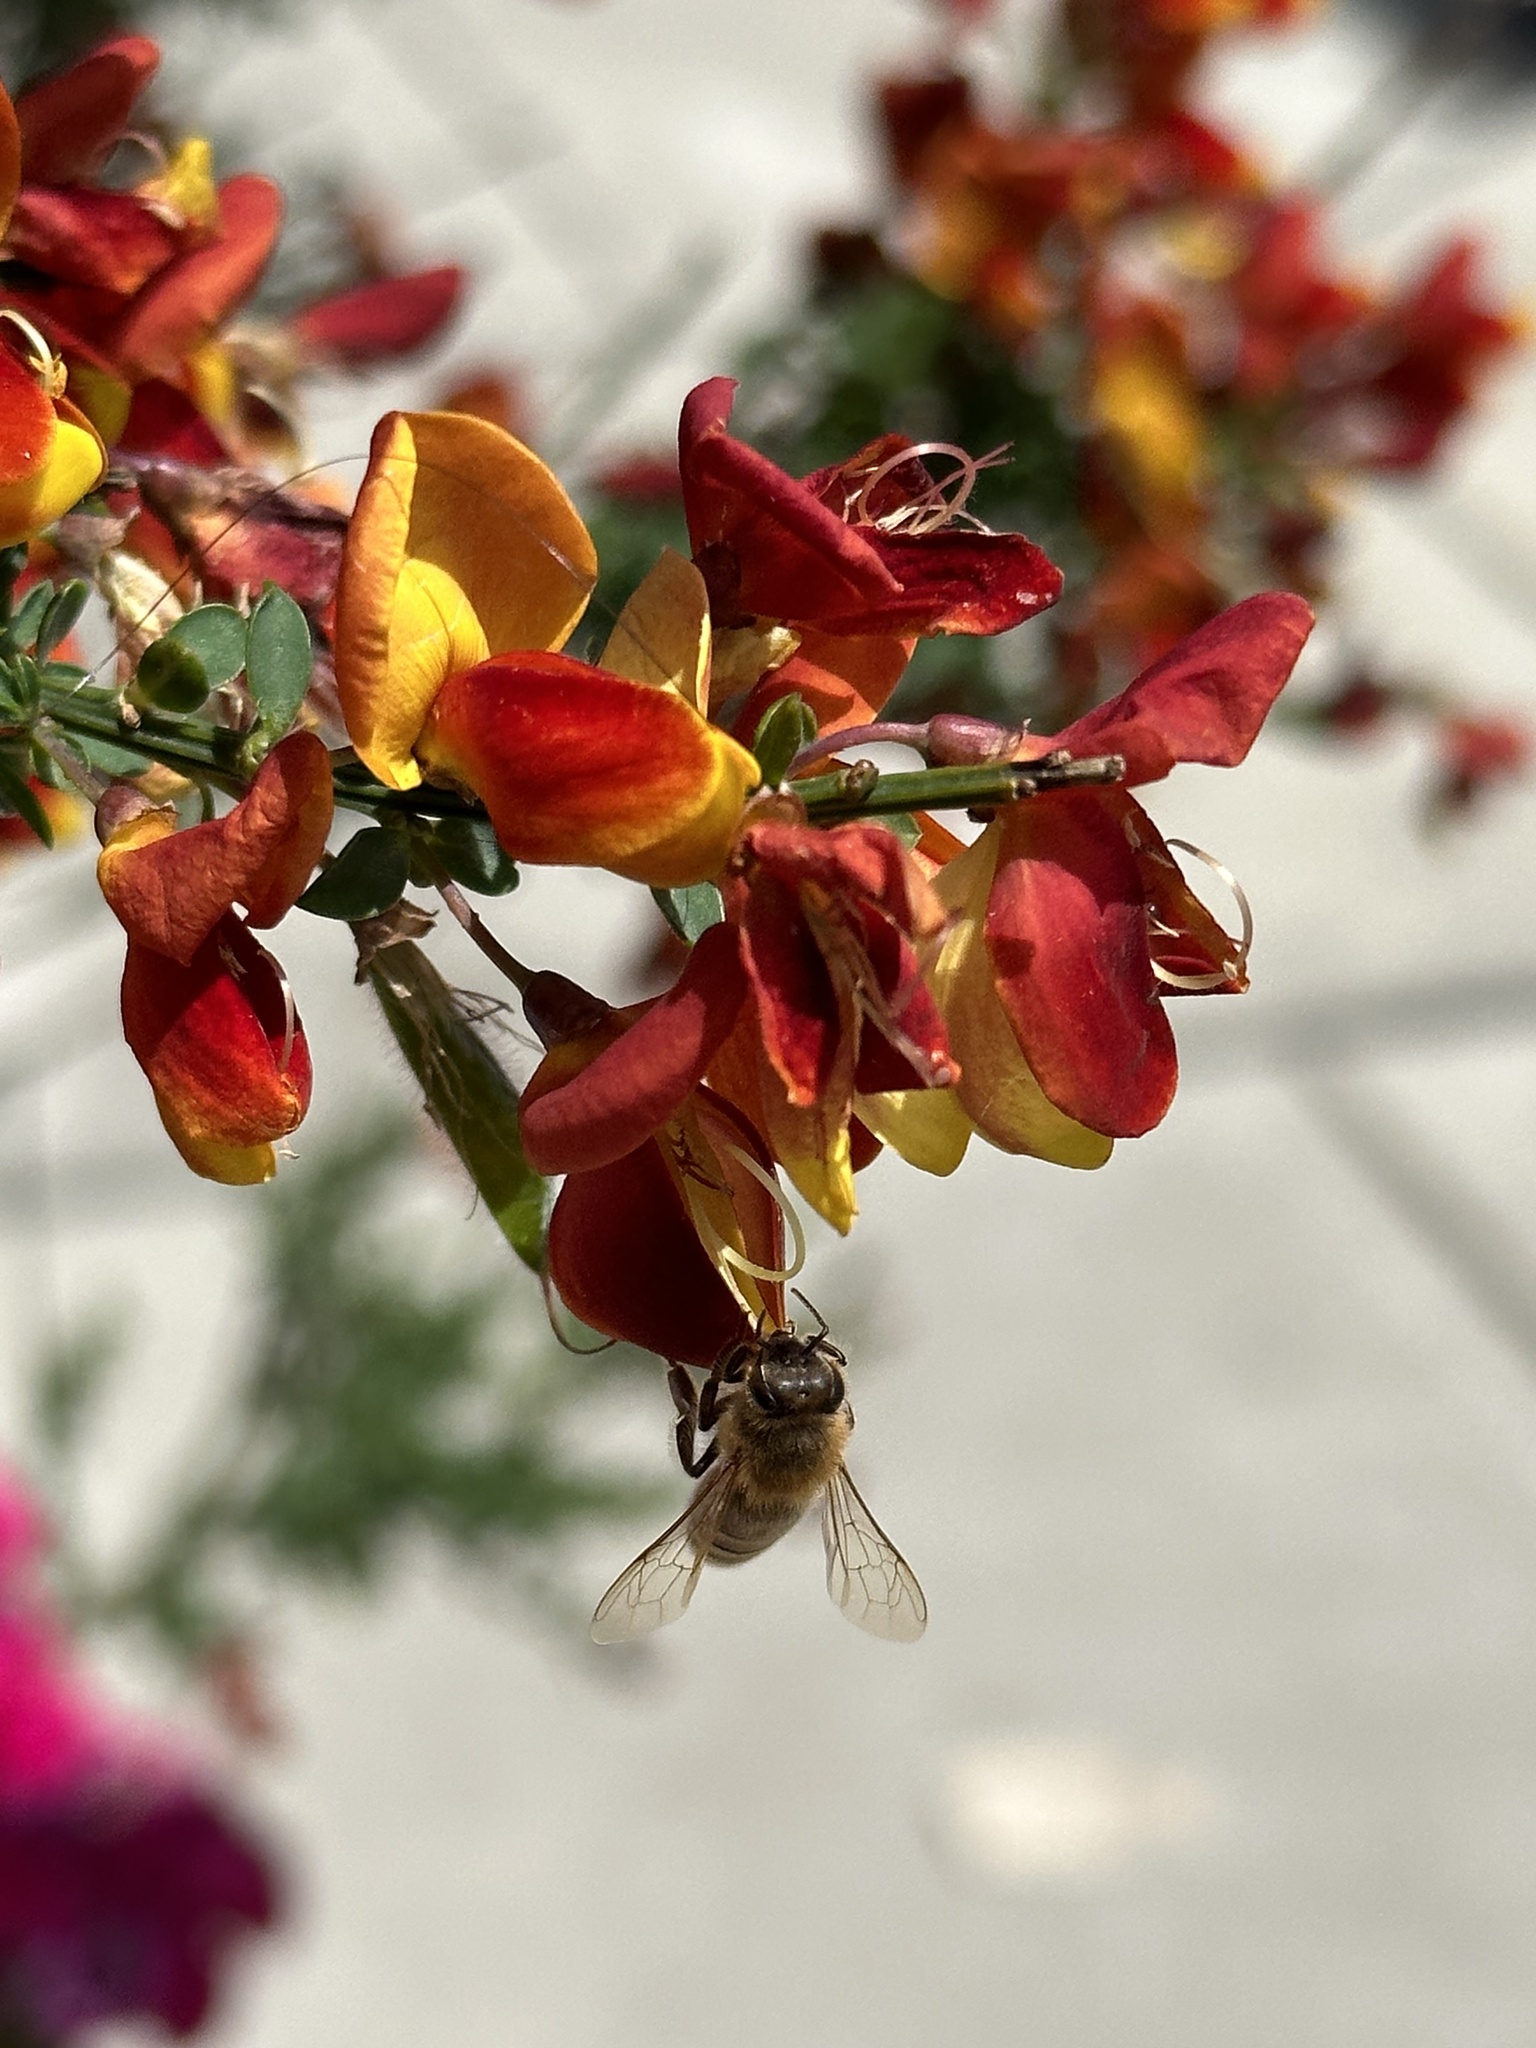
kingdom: Animalia
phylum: Arthropoda
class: Insecta
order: Hymenoptera
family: Apidae
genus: Apis
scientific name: Apis mellifera
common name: Honey bee
